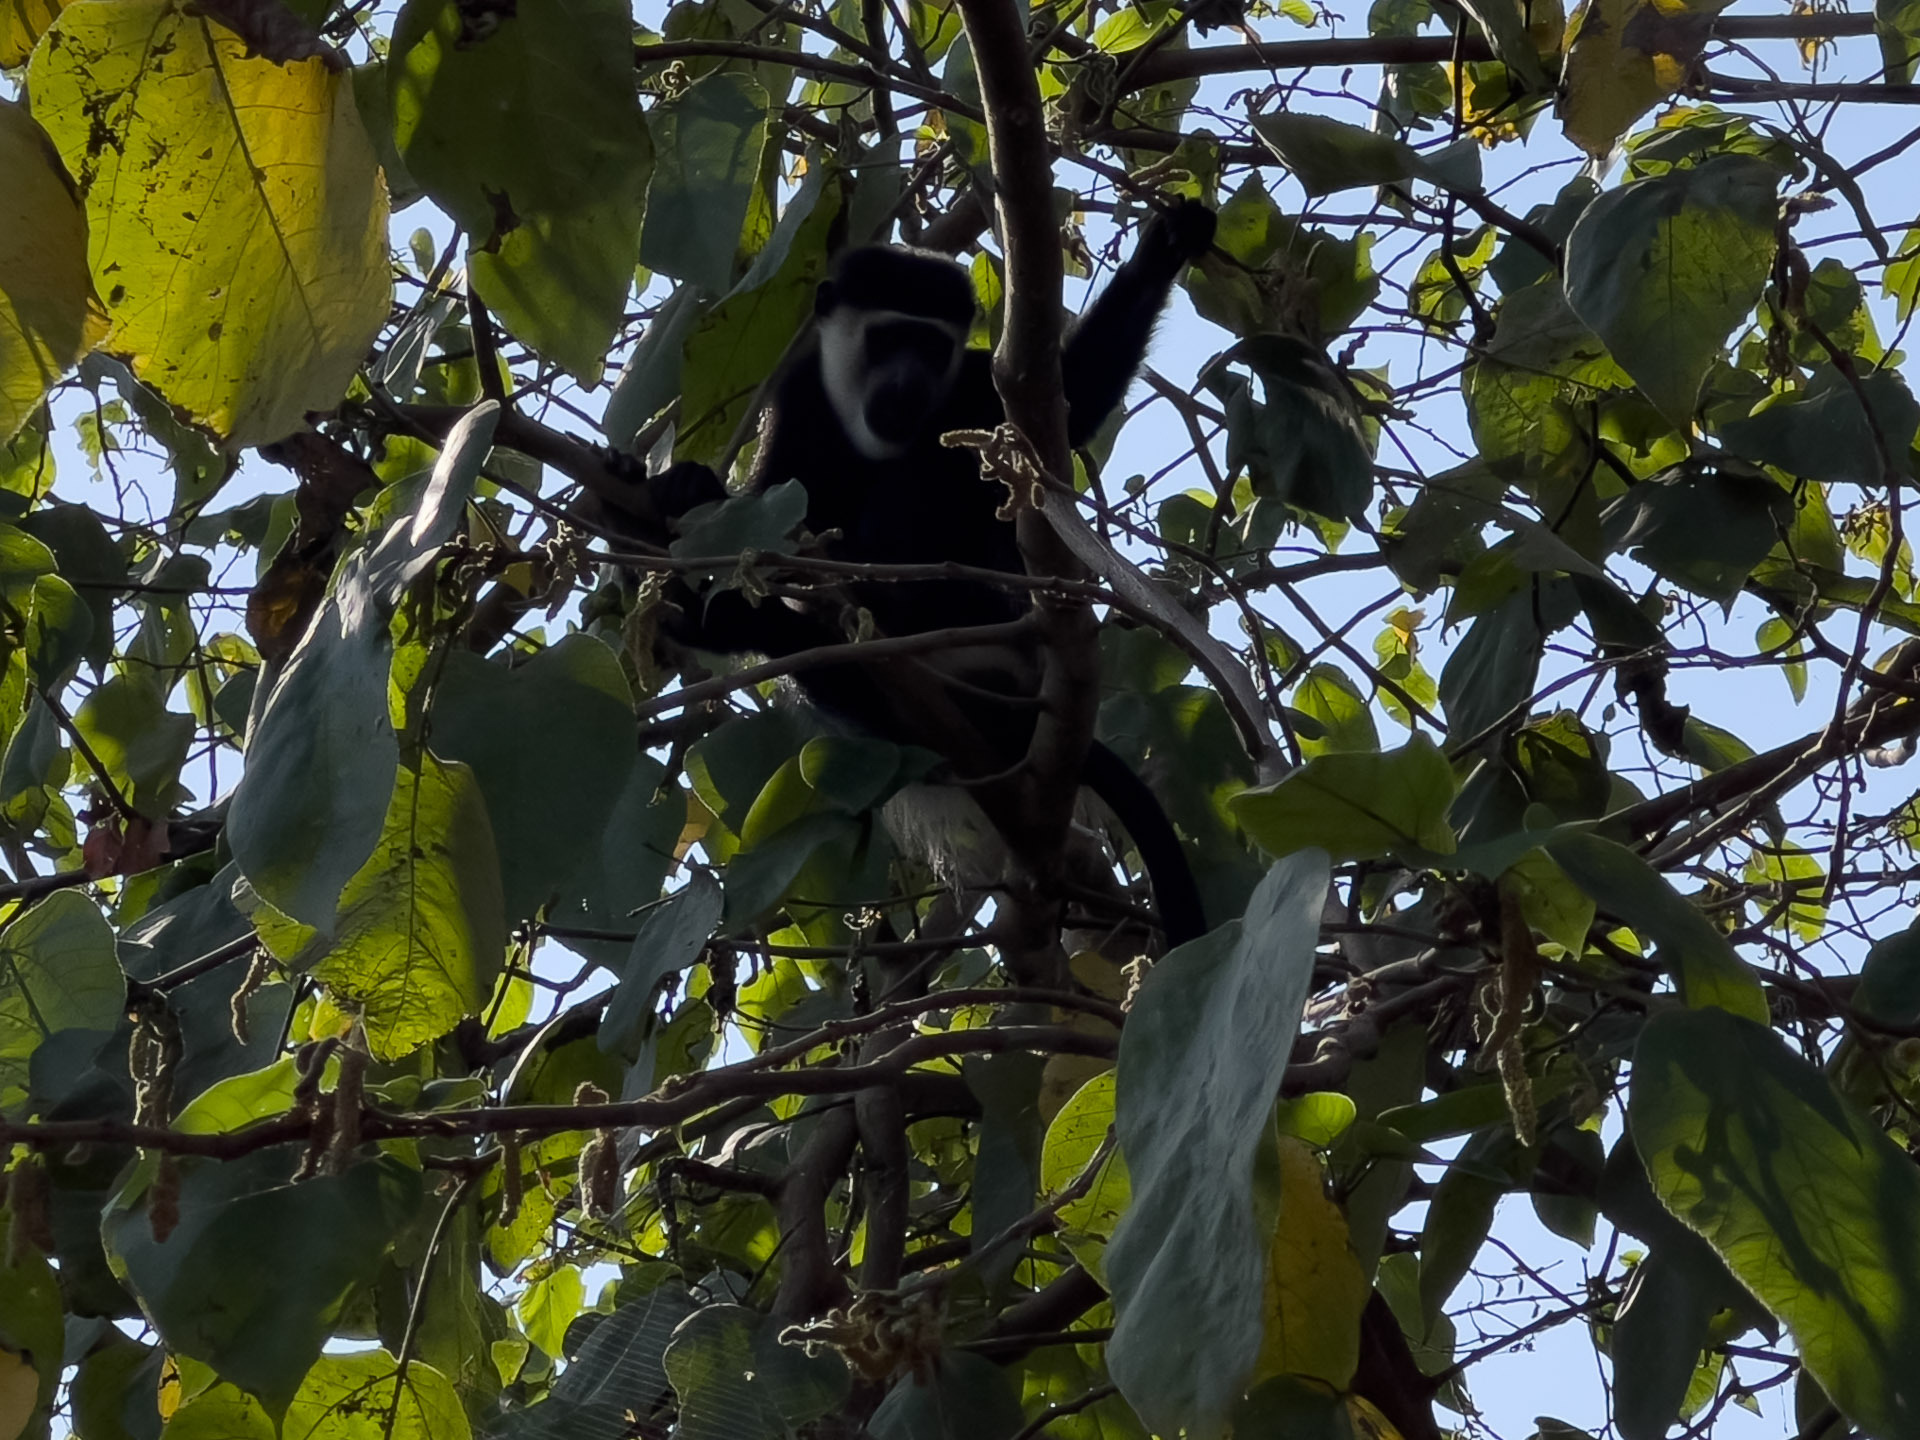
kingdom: Animalia
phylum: Chordata
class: Mammalia
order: Primates
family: Cercopithecidae
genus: Colobus
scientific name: Colobus guereza
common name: Mantled guereza
